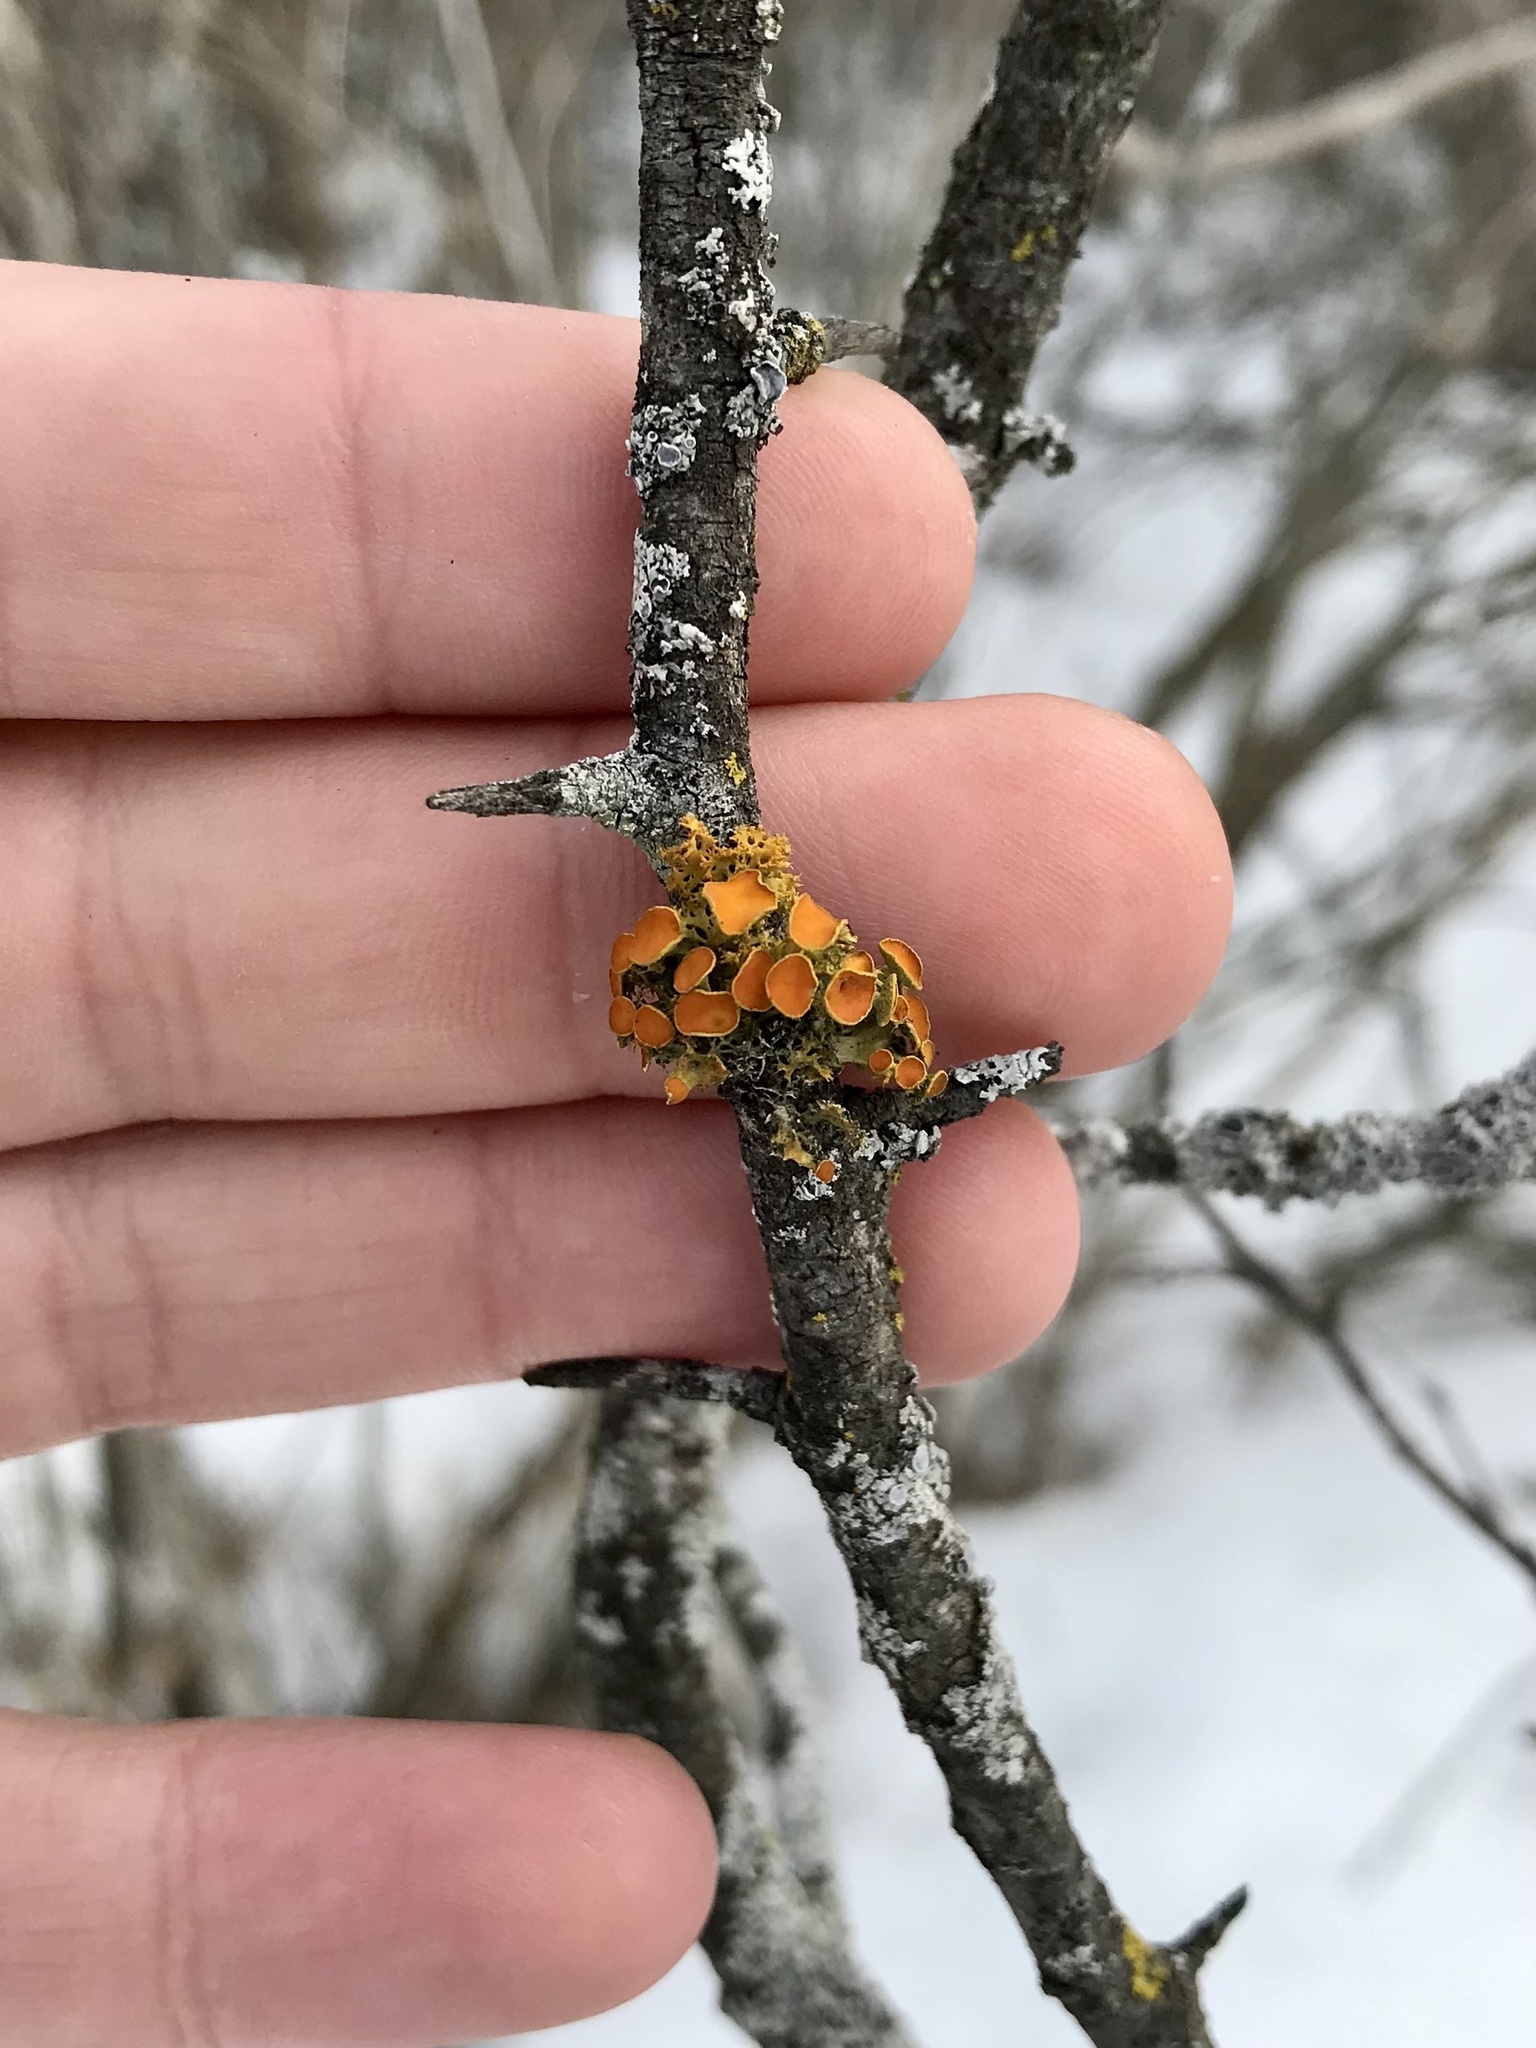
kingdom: Fungi
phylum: Ascomycota
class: Lecanoromycetes
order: Teloschistales
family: Teloschistaceae
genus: Niorma
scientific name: Niorma chrysophthalma
